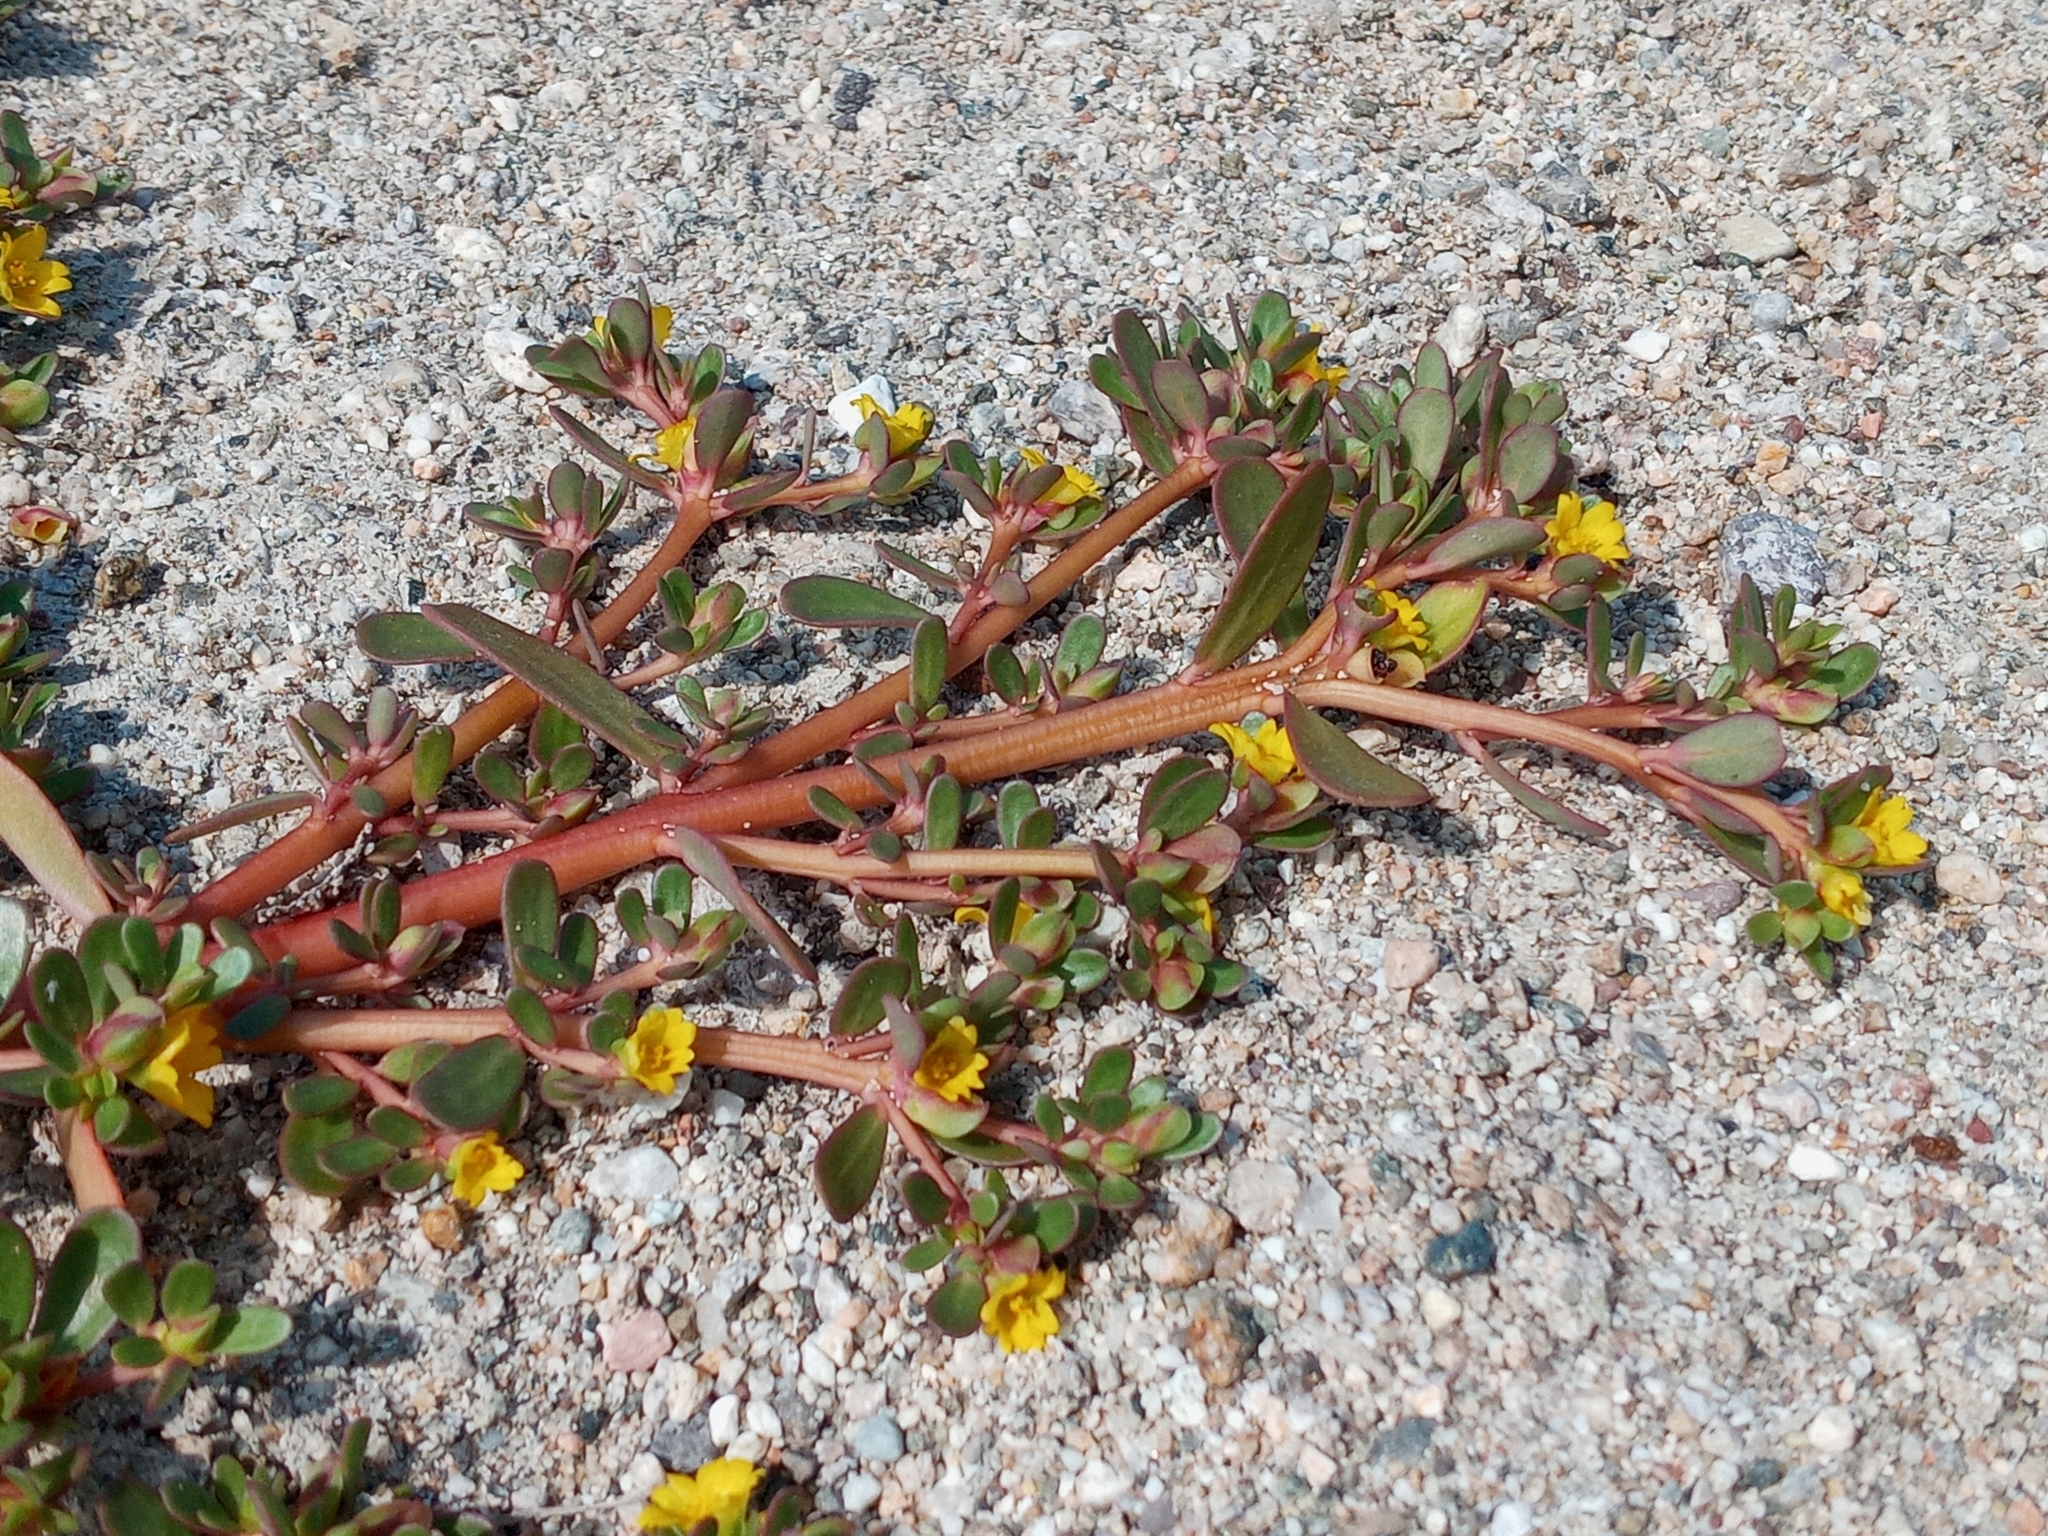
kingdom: Plantae
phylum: Tracheophyta
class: Magnoliopsida
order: Caryophyllales
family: Portulacaceae
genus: Portulaca
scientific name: Portulaca oleracea
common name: Common purslane
